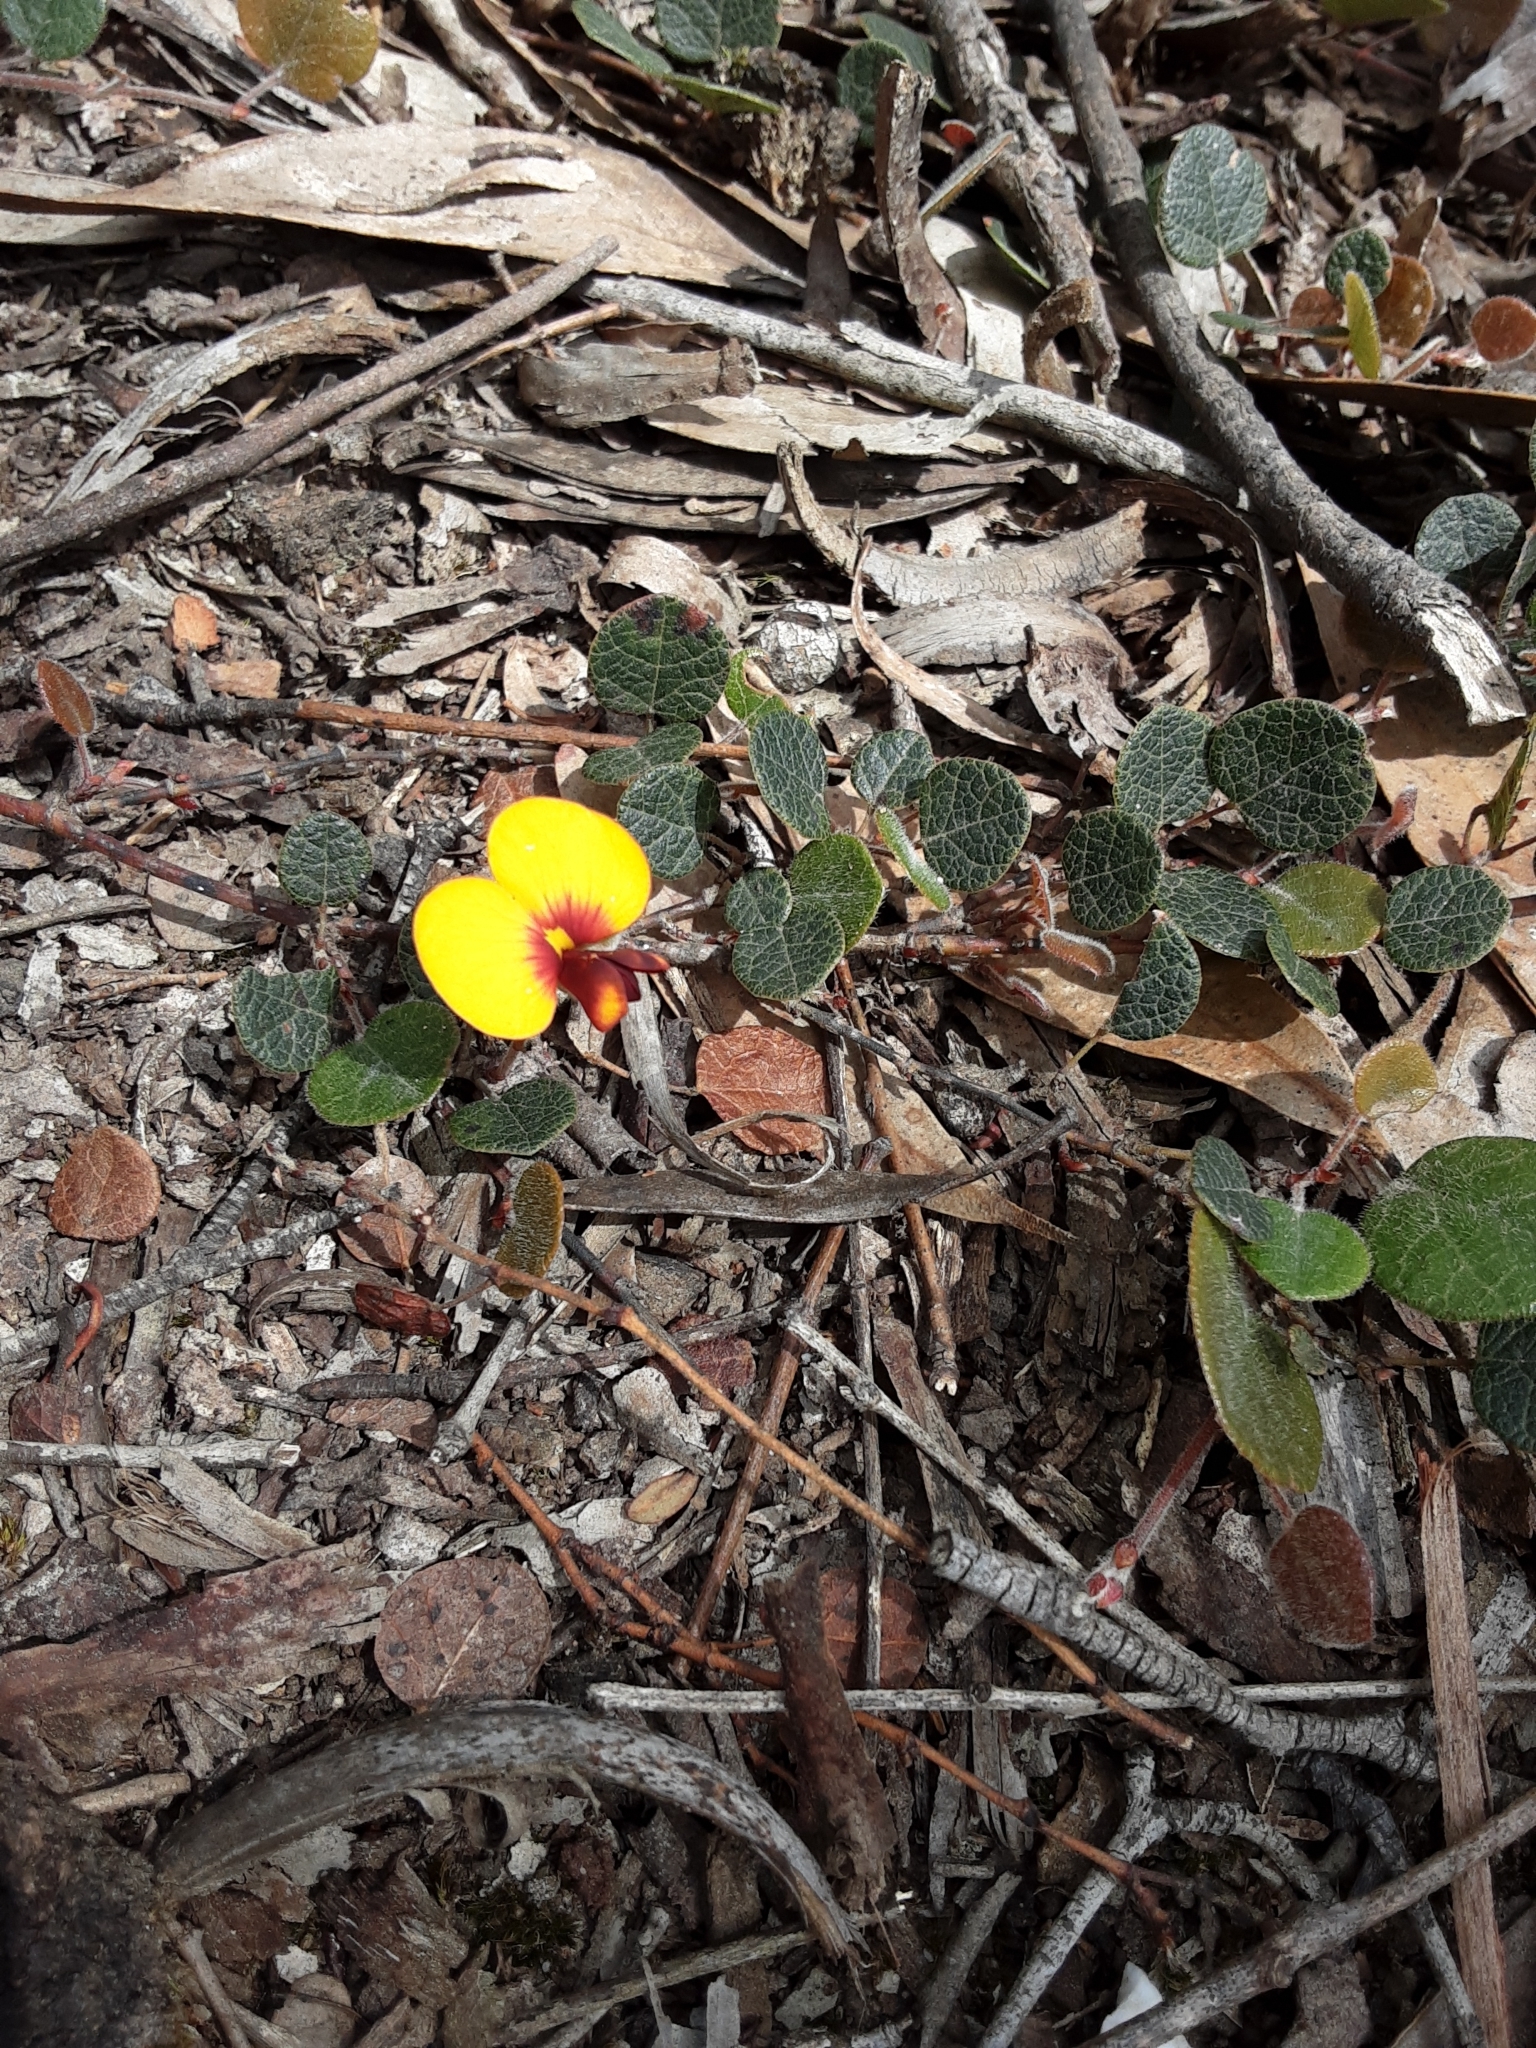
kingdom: Plantae
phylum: Tracheophyta
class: Magnoliopsida
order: Fabales
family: Fabaceae
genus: Platylobium
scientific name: Platylobium rotundum
